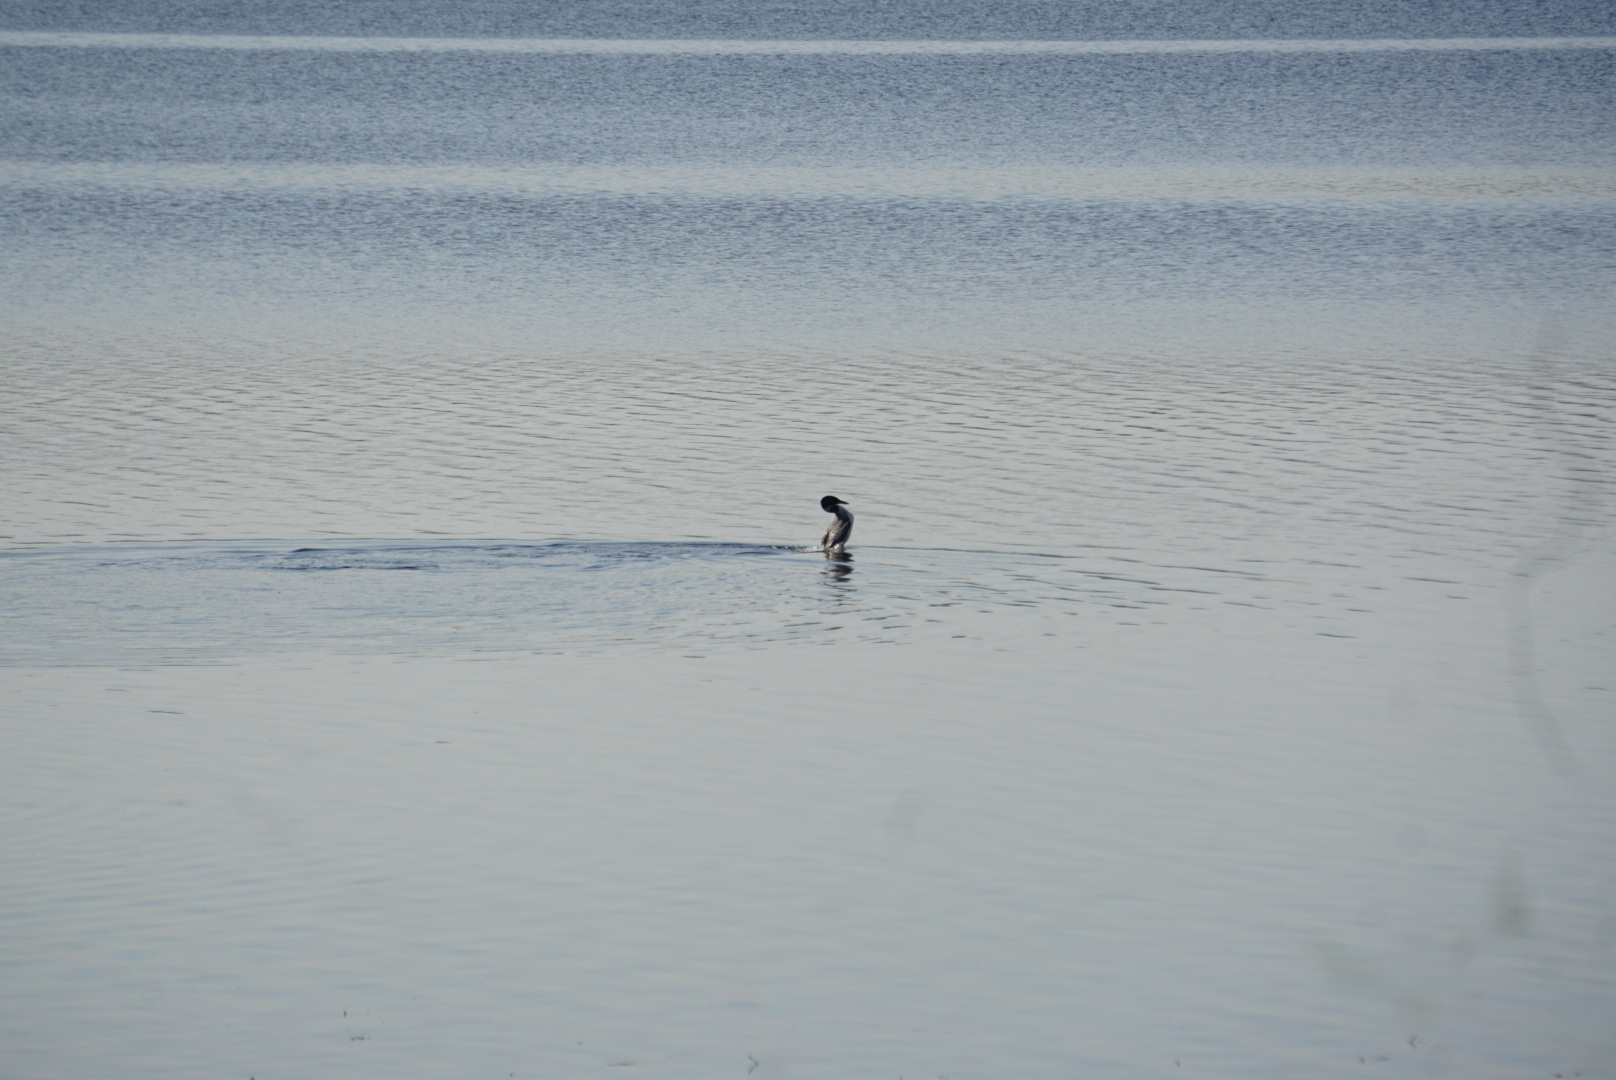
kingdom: Animalia
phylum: Chordata
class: Aves
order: Gaviiformes
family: Gaviidae
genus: Gavia
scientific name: Gavia immer
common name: Common loon
